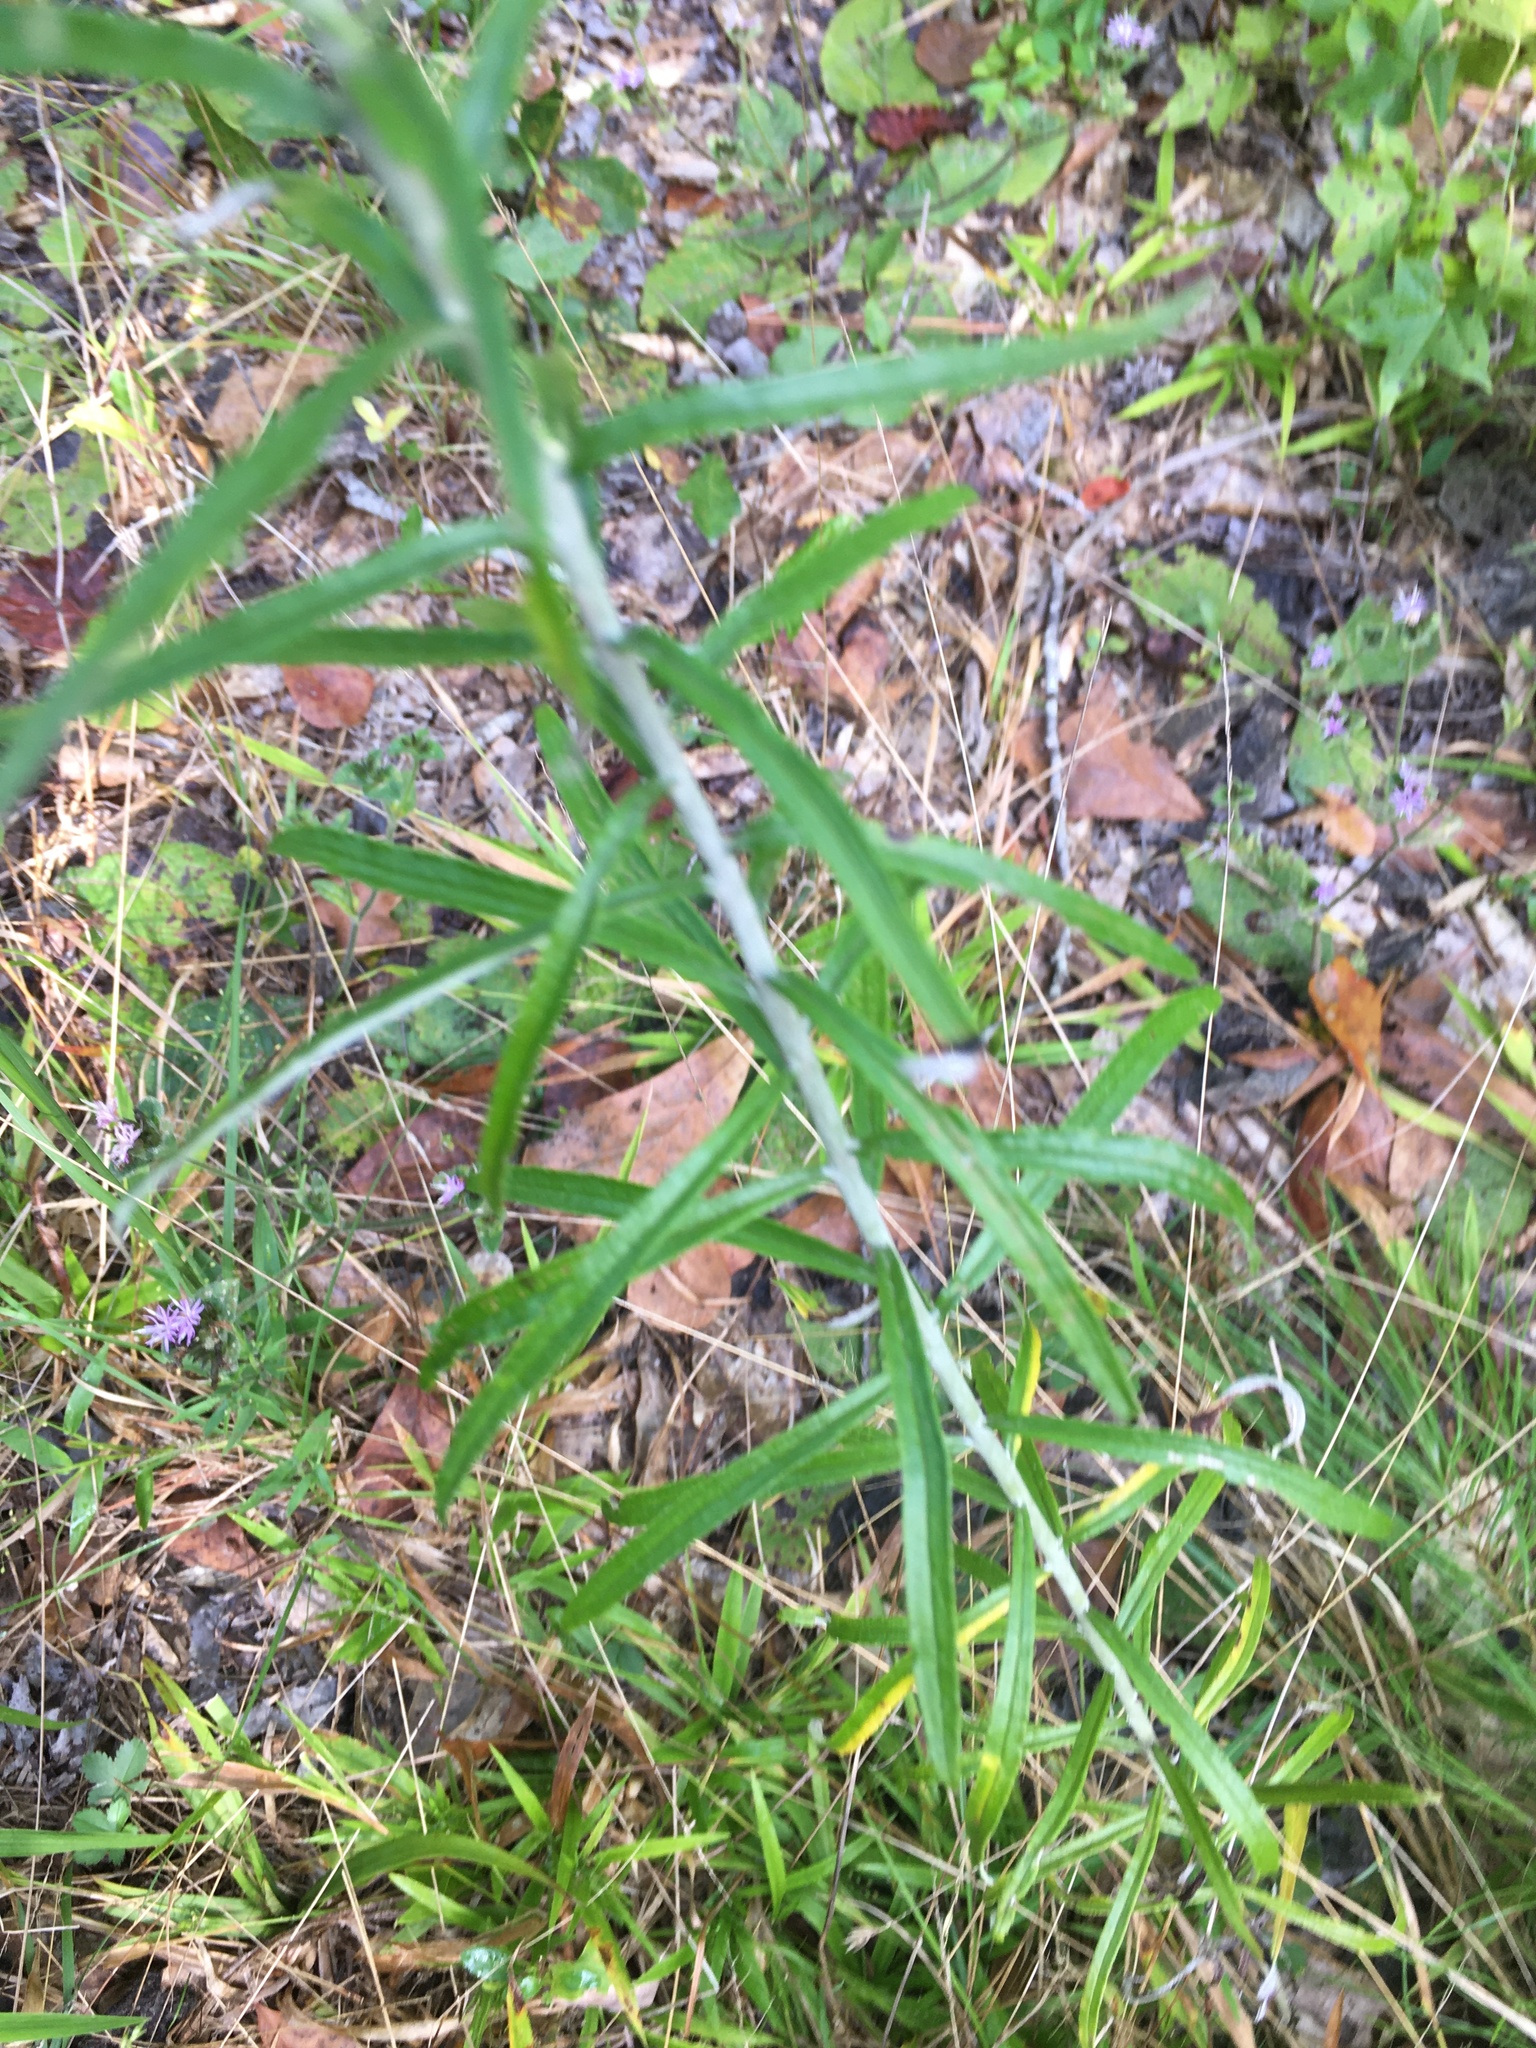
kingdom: Plantae
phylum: Tracheophyta
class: Magnoliopsida
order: Asterales
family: Asteraceae
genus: Pseudognaphalium
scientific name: Pseudognaphalium obtusifolium
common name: Eastern rabbit-tobacco
